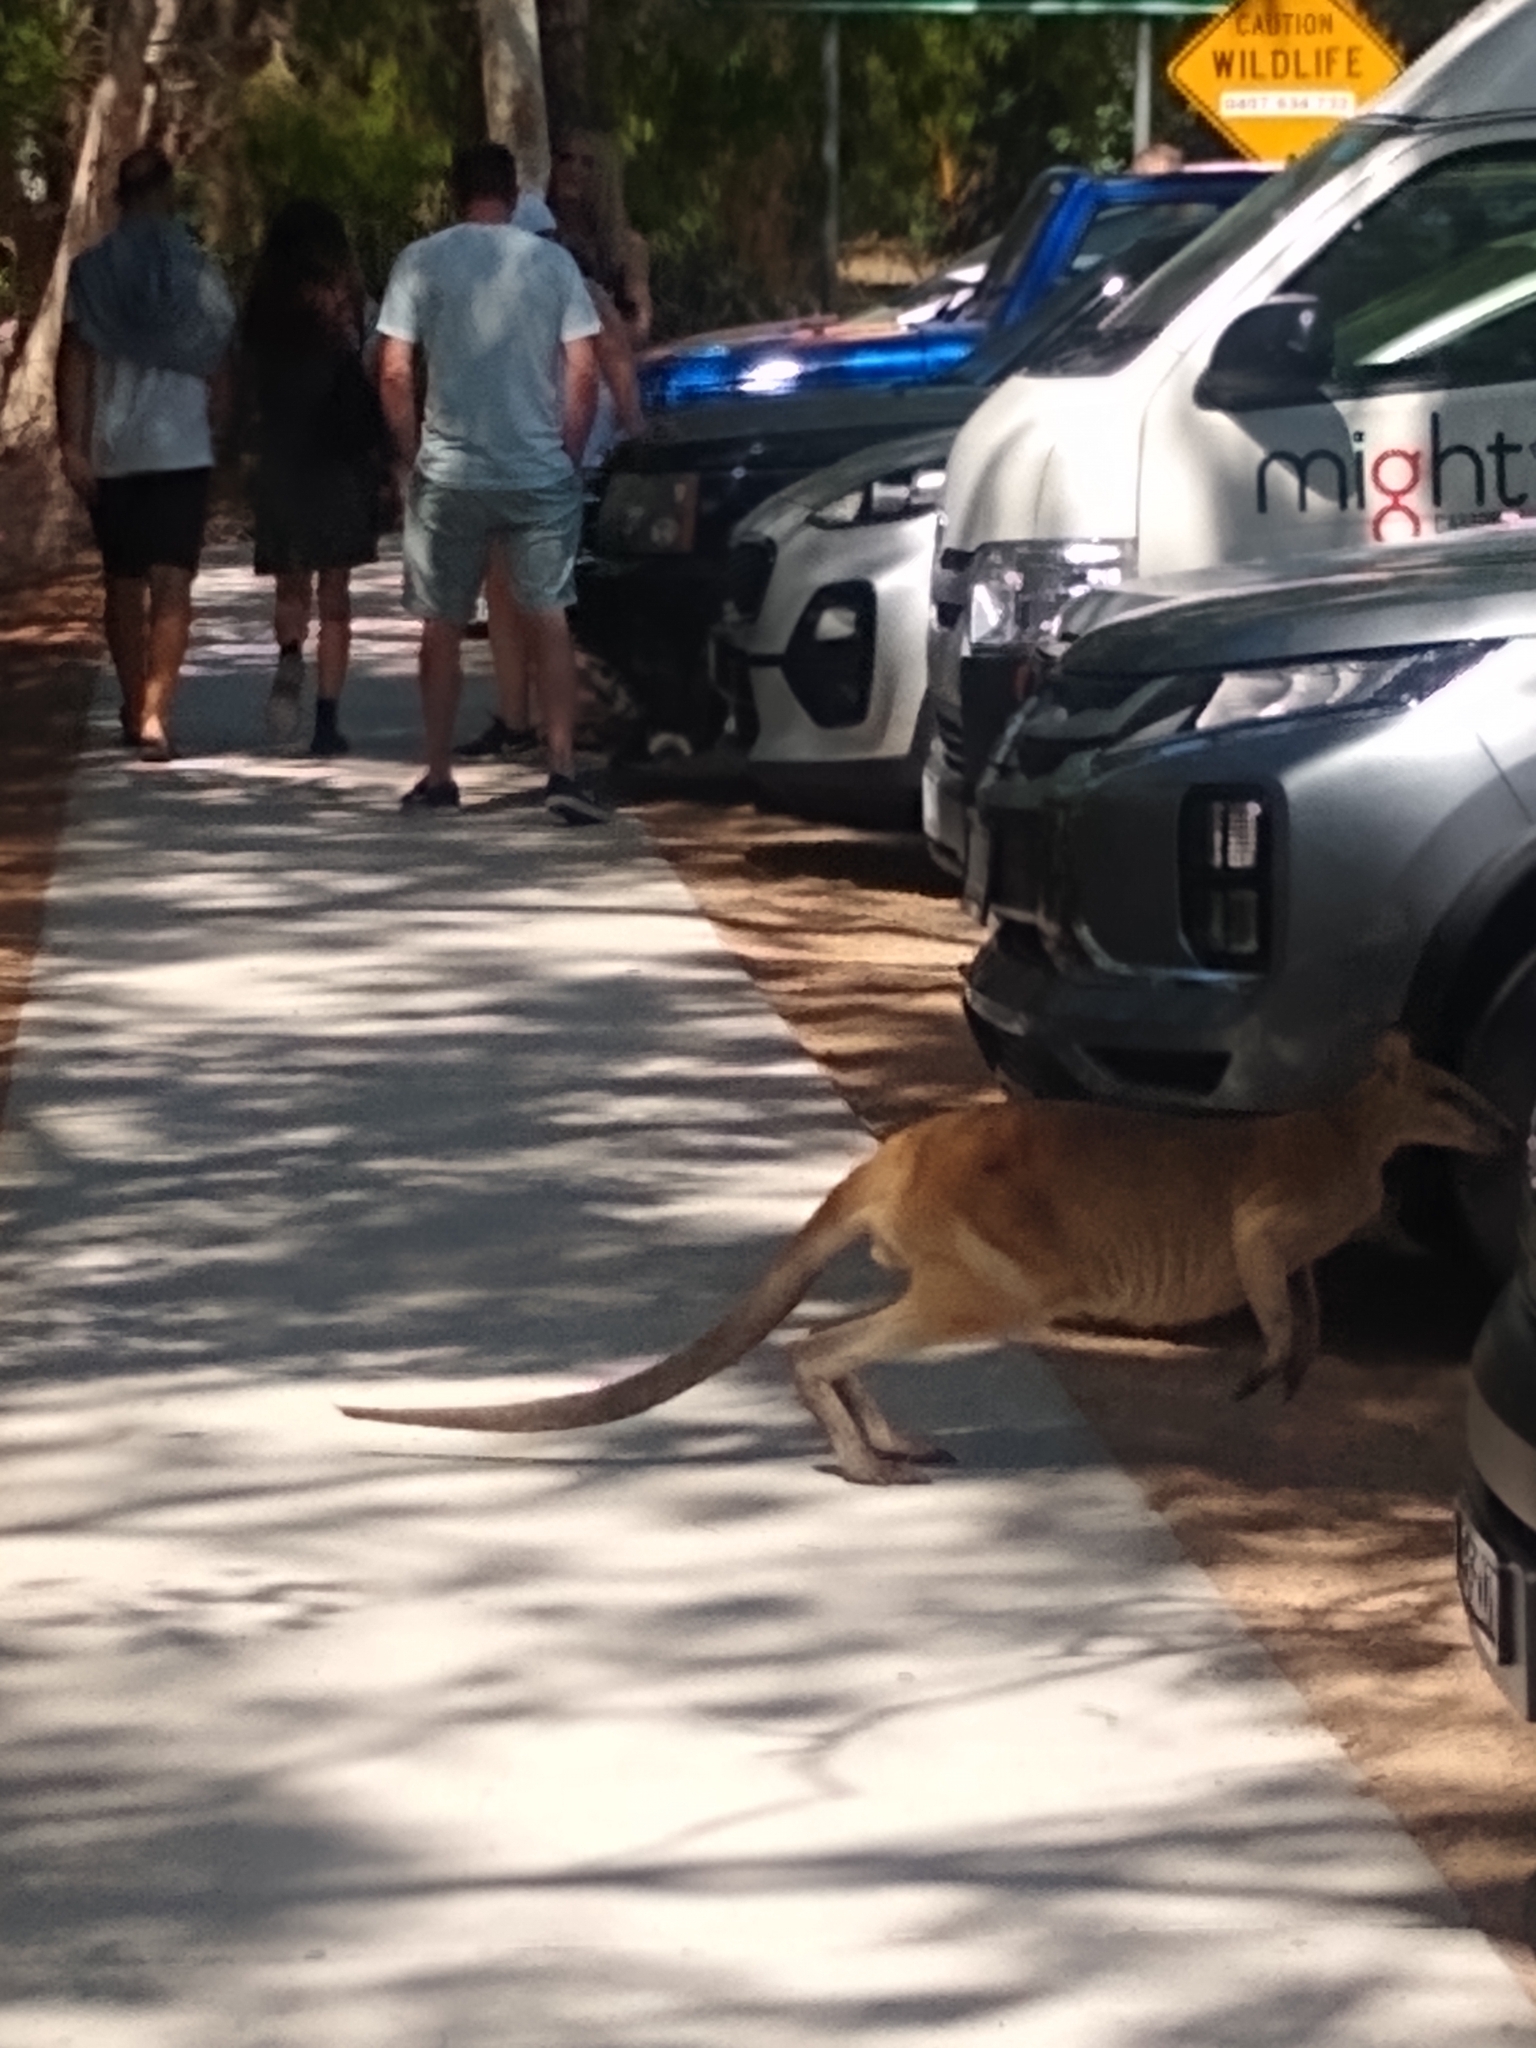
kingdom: Animalia
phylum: Chordata
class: Mammalia
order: Diprotodontia
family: Macropodidae
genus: Macropus
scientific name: Macropus agilis
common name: Agile wallaby
